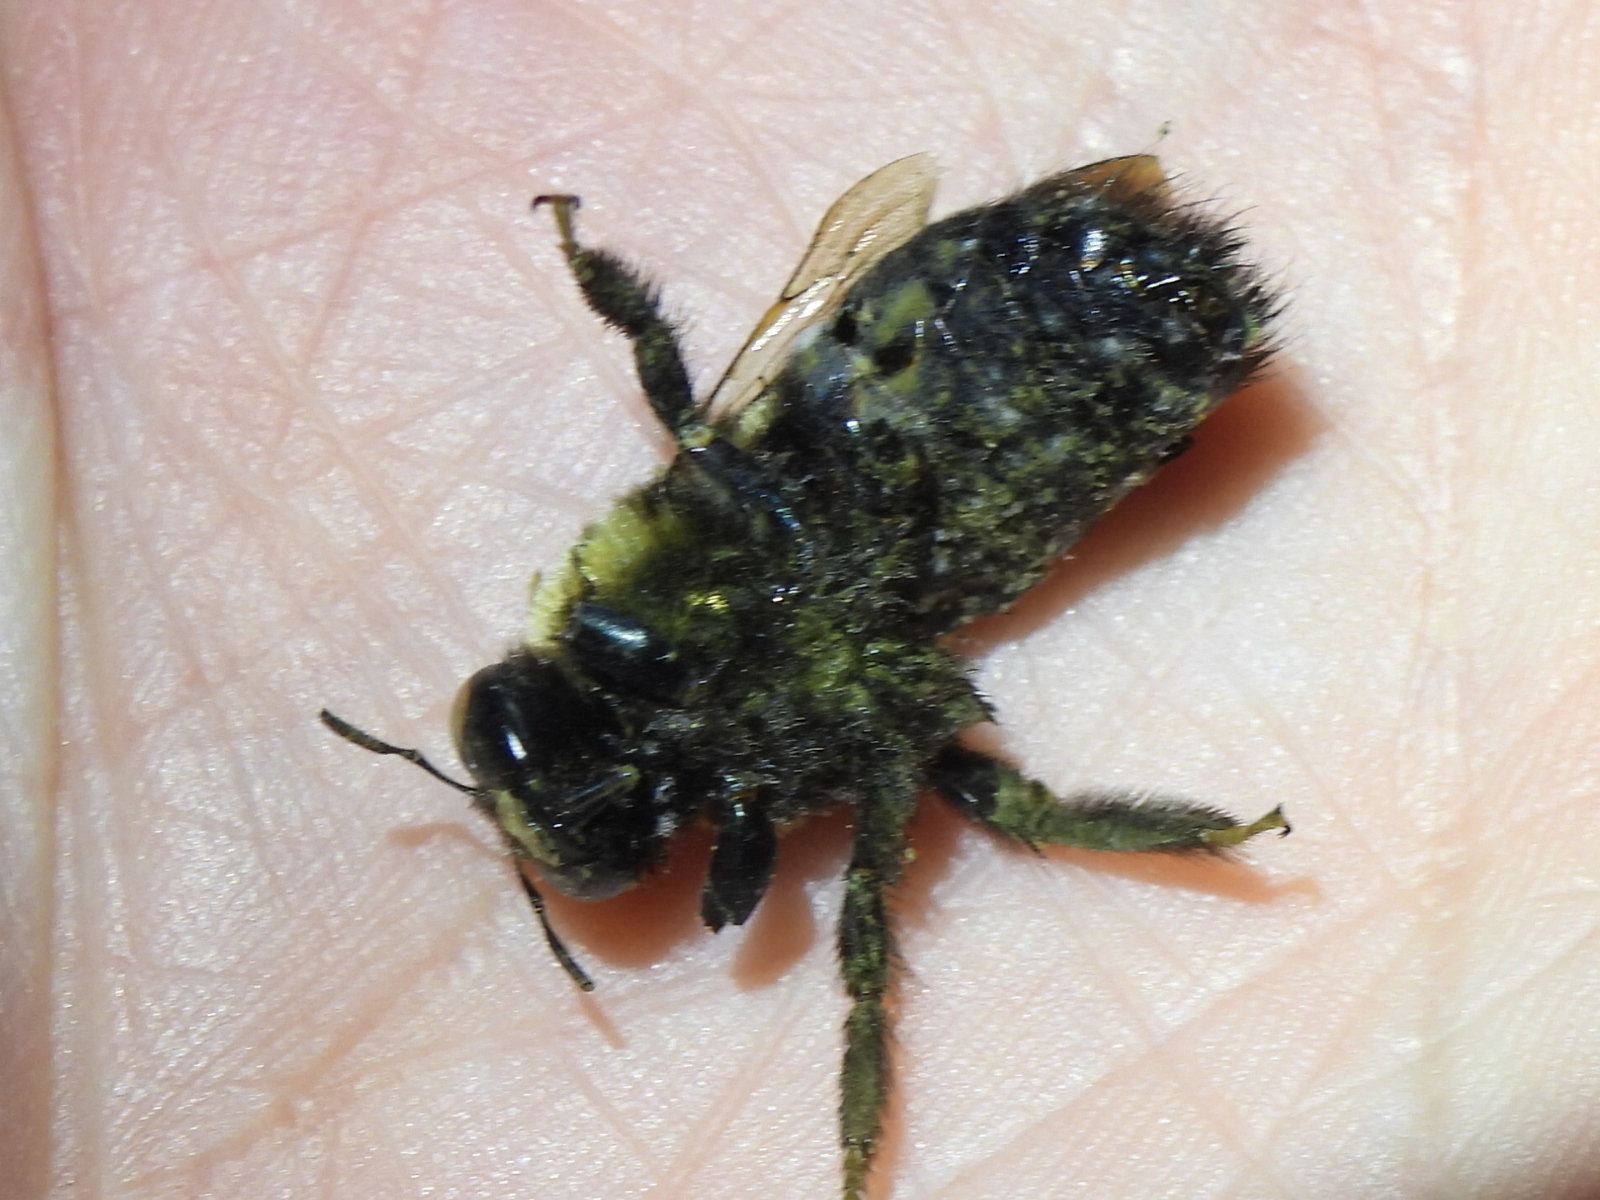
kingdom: Animalia
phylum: Arthropoda
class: Insecta
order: Hymenoptera
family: Apidae
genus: Xylocopa
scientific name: Xylocopa virginica
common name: Carpenter bee
